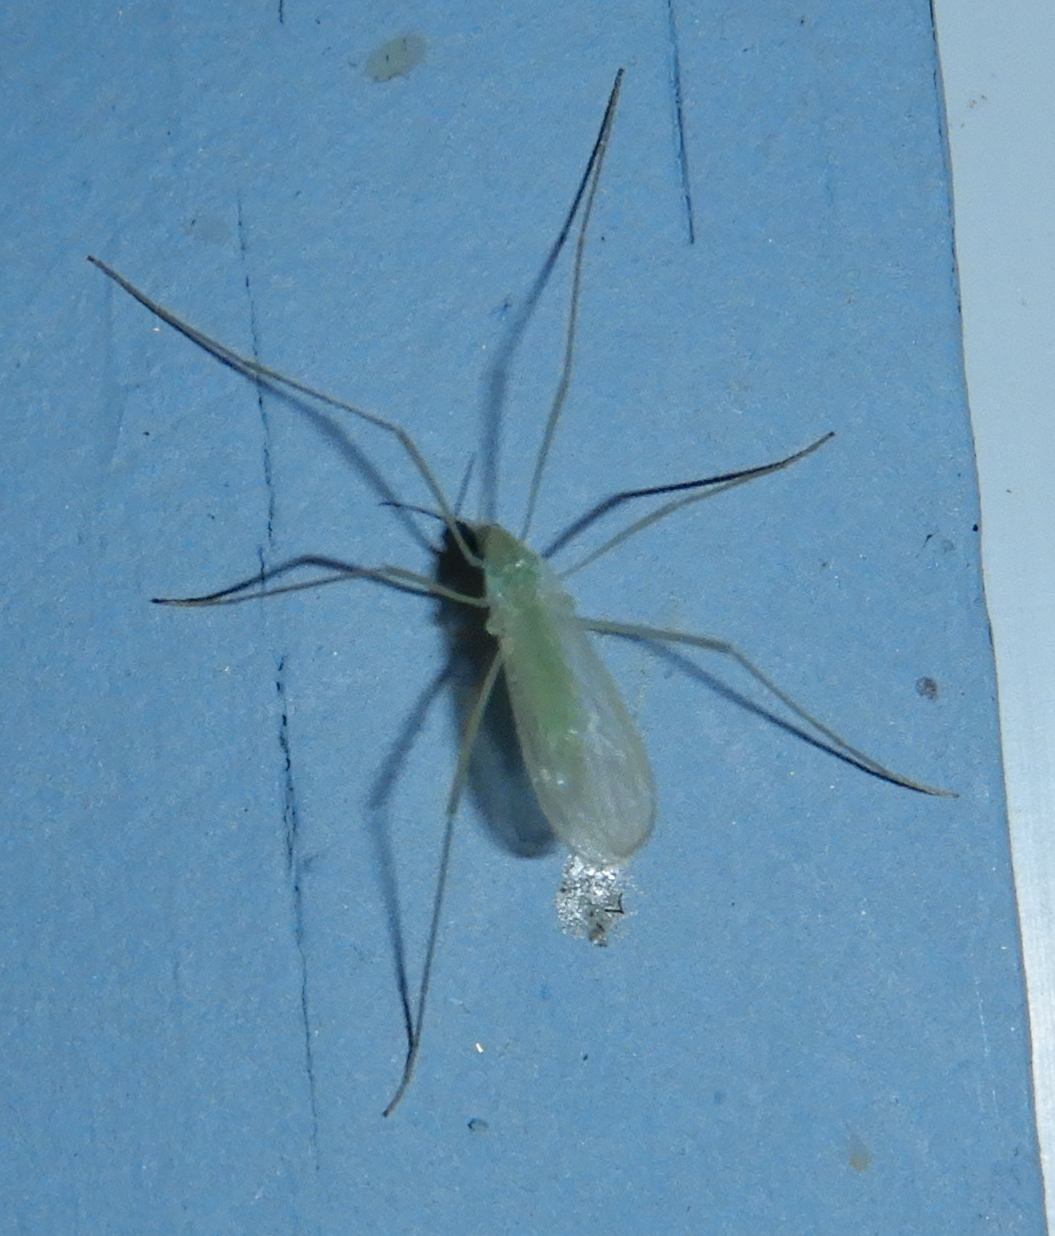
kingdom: Animalia
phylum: Arthropoda
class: Insecta
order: Diptera
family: Limoniidae
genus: Erioptera
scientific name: Erioptera
